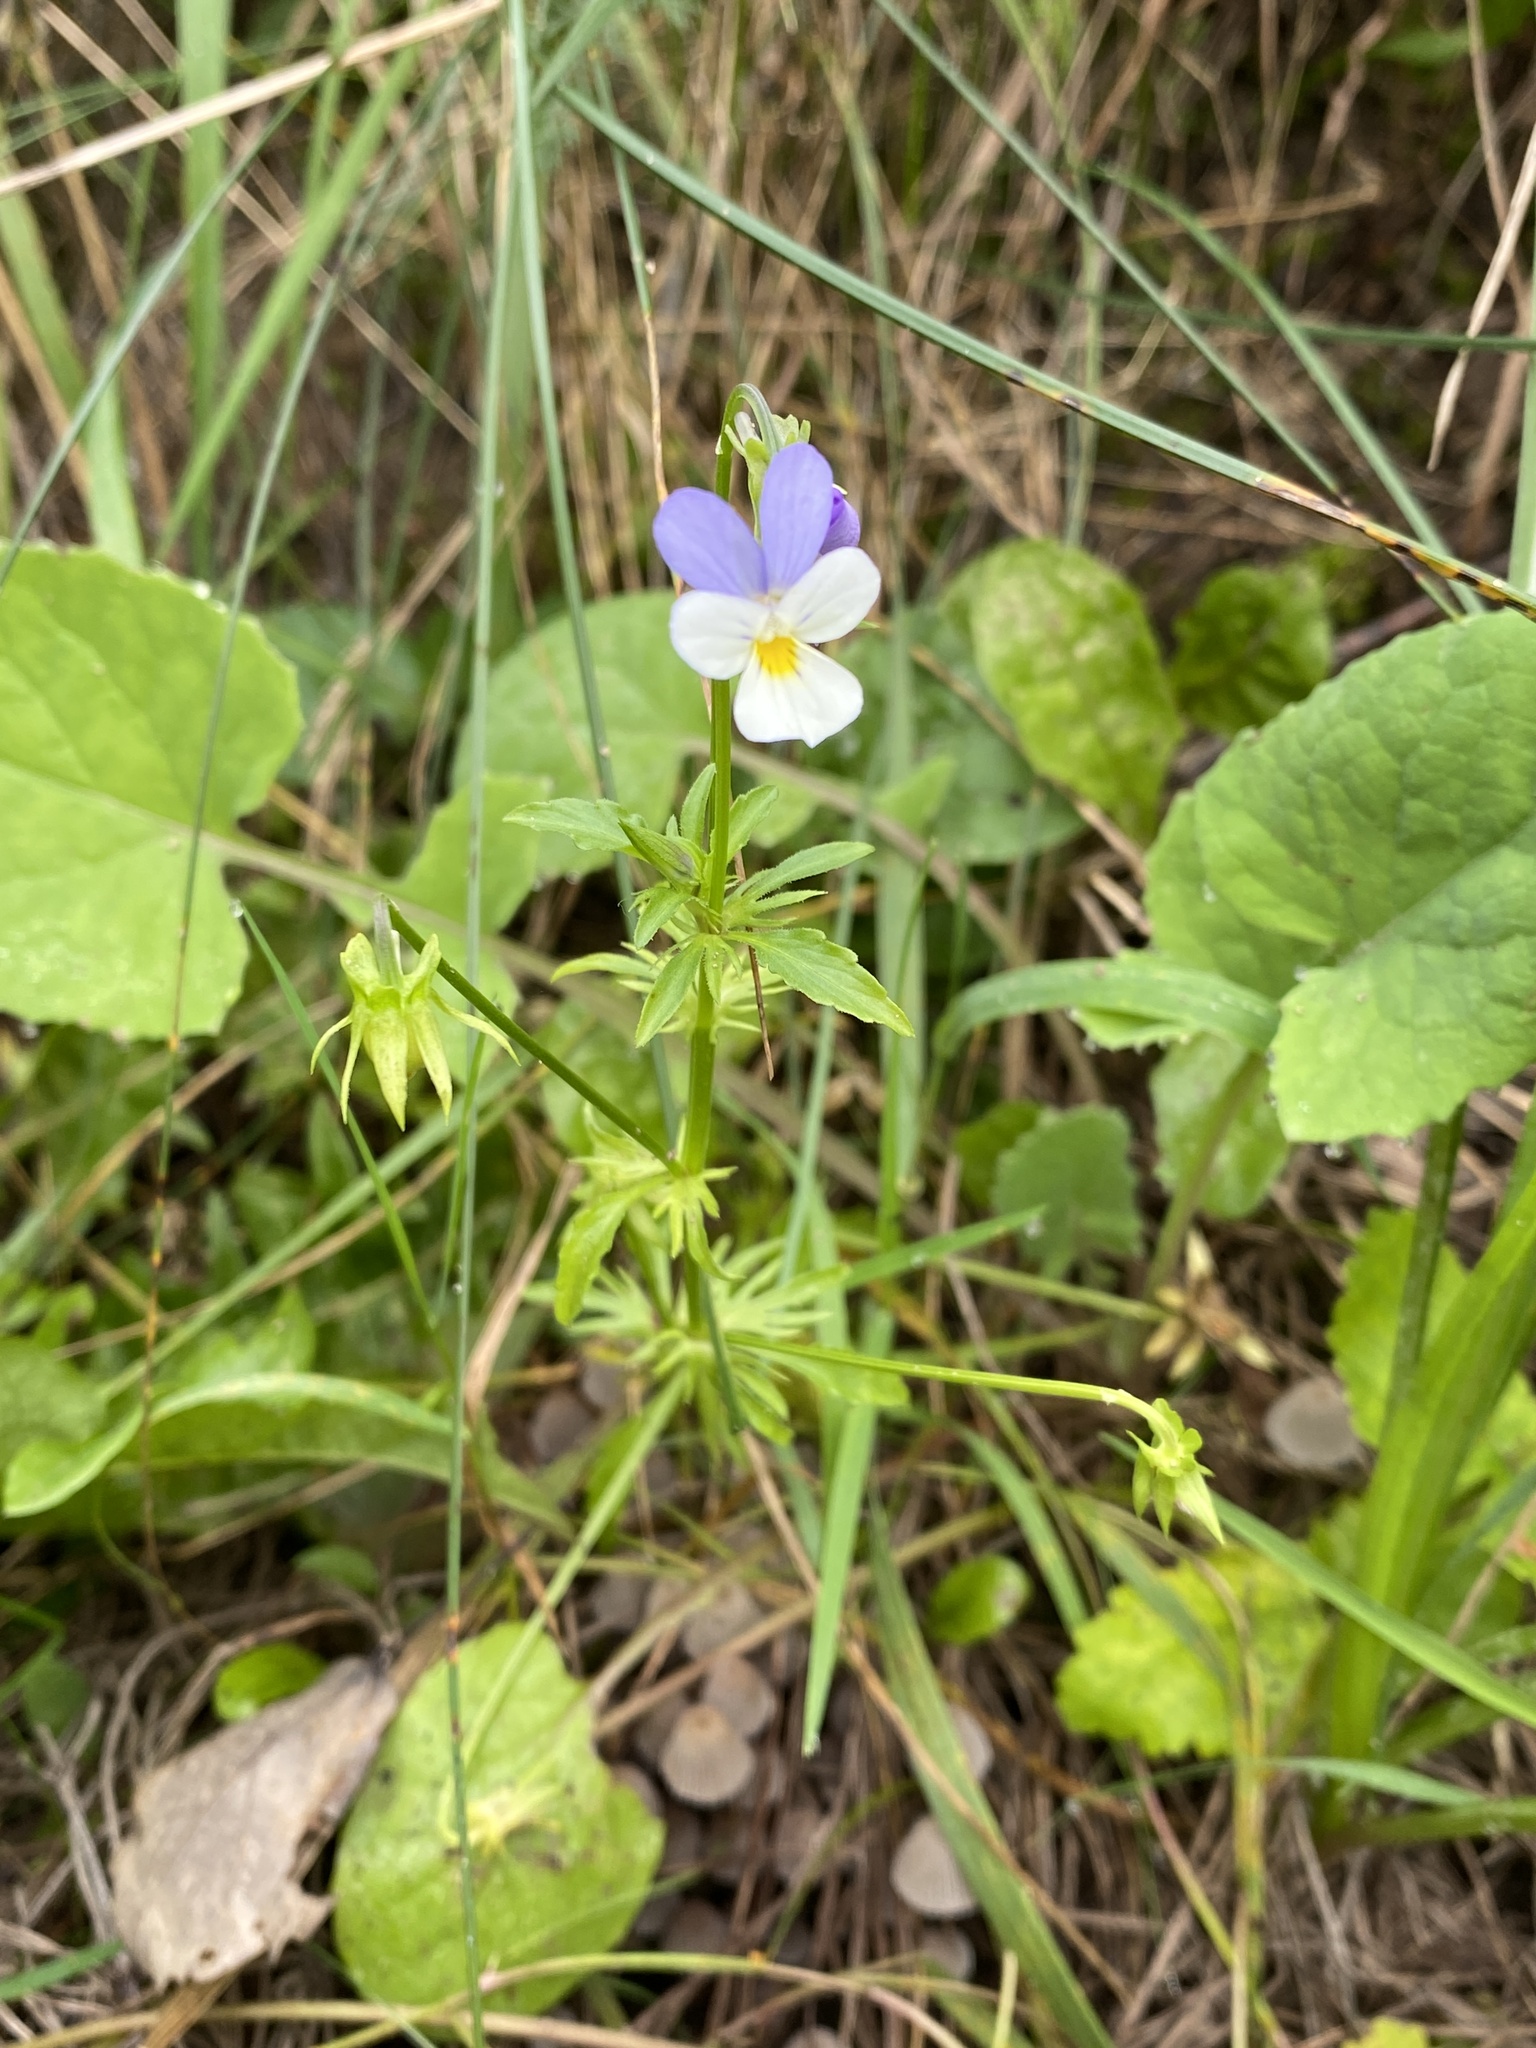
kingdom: Plantae
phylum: Tracheophyta
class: Magnoliopsida
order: Malpighiales
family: Violaceae
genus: Viola
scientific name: Viola tricolor
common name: Pansy
